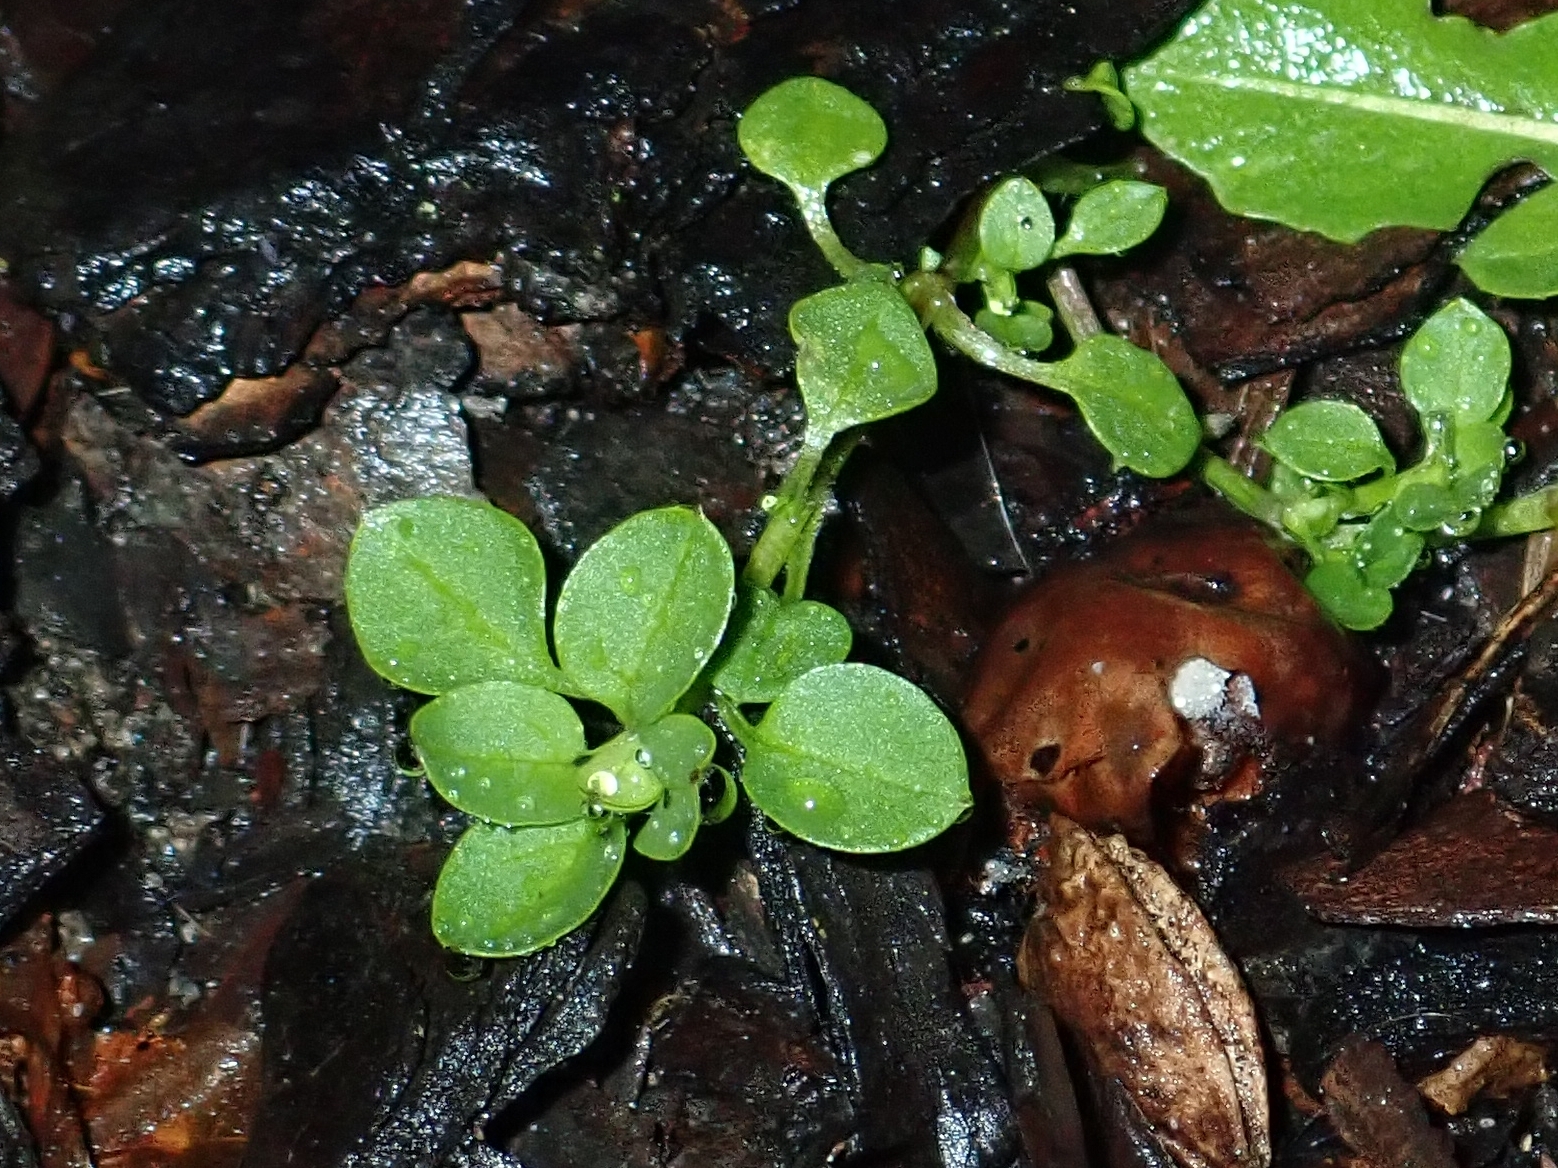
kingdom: Plantae
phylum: Tracheophyta
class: Magnoliopsida
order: Caryophyllales
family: Caryophyllaceae
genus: Stellaria
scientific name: Stellaria media
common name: Common chickweed
